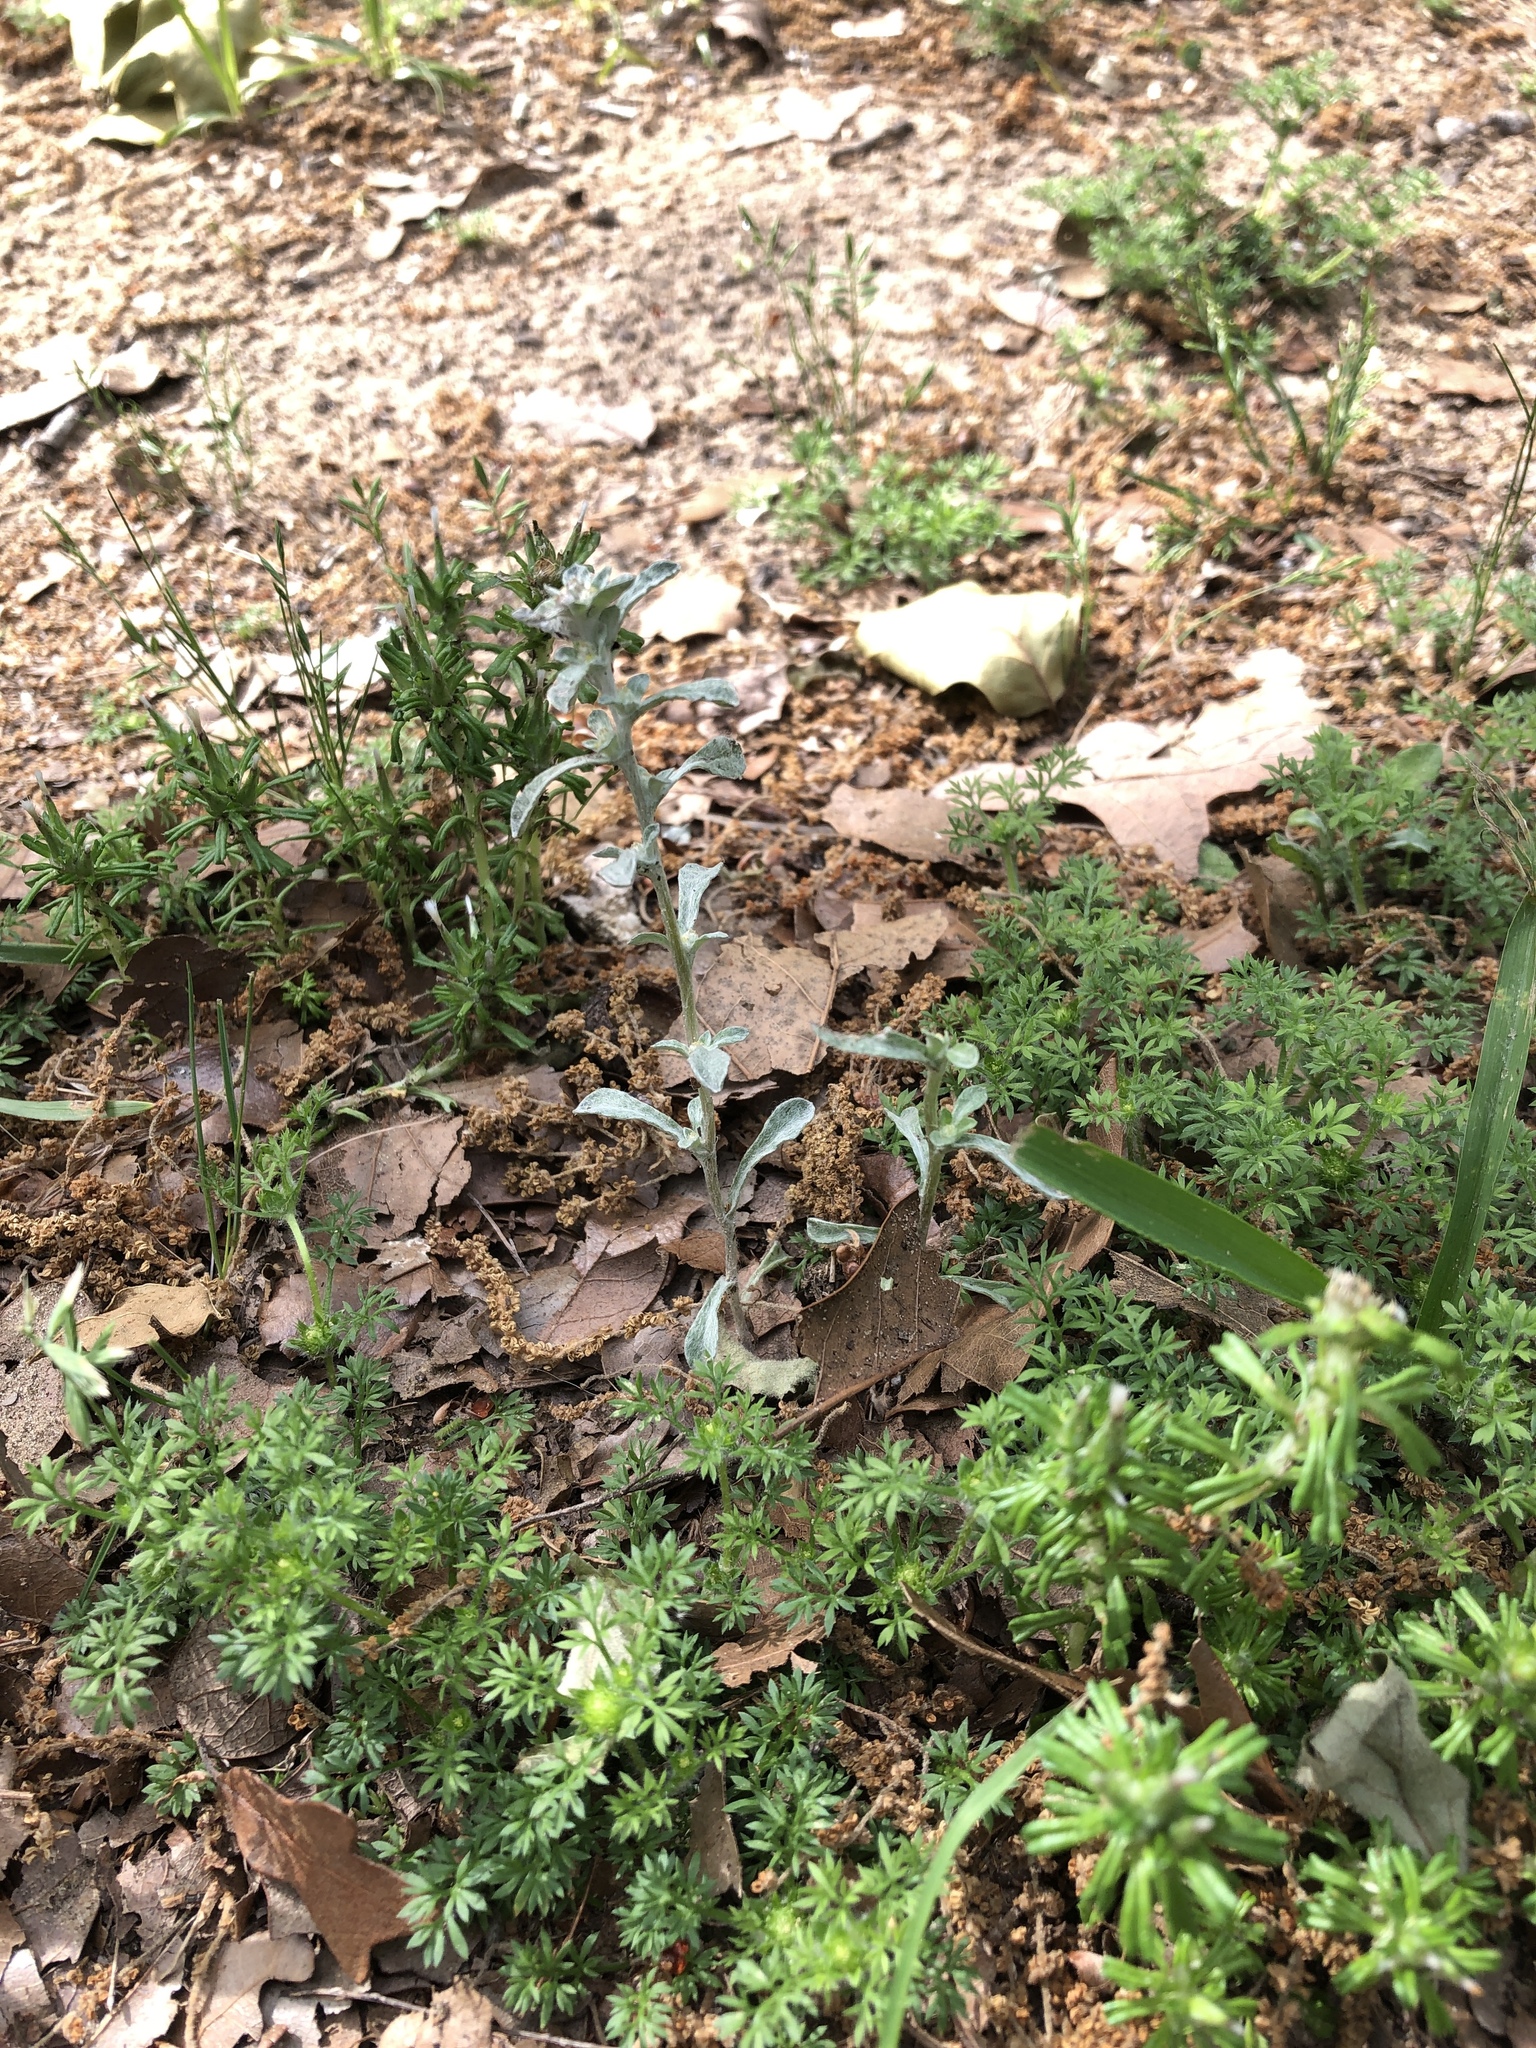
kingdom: Plantae
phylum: Tracheophyta
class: Magnoliopsida
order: Asterales
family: Asteraceae
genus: Diaperia
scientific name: Diaperia candida
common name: Silver rabbit-tobacco
